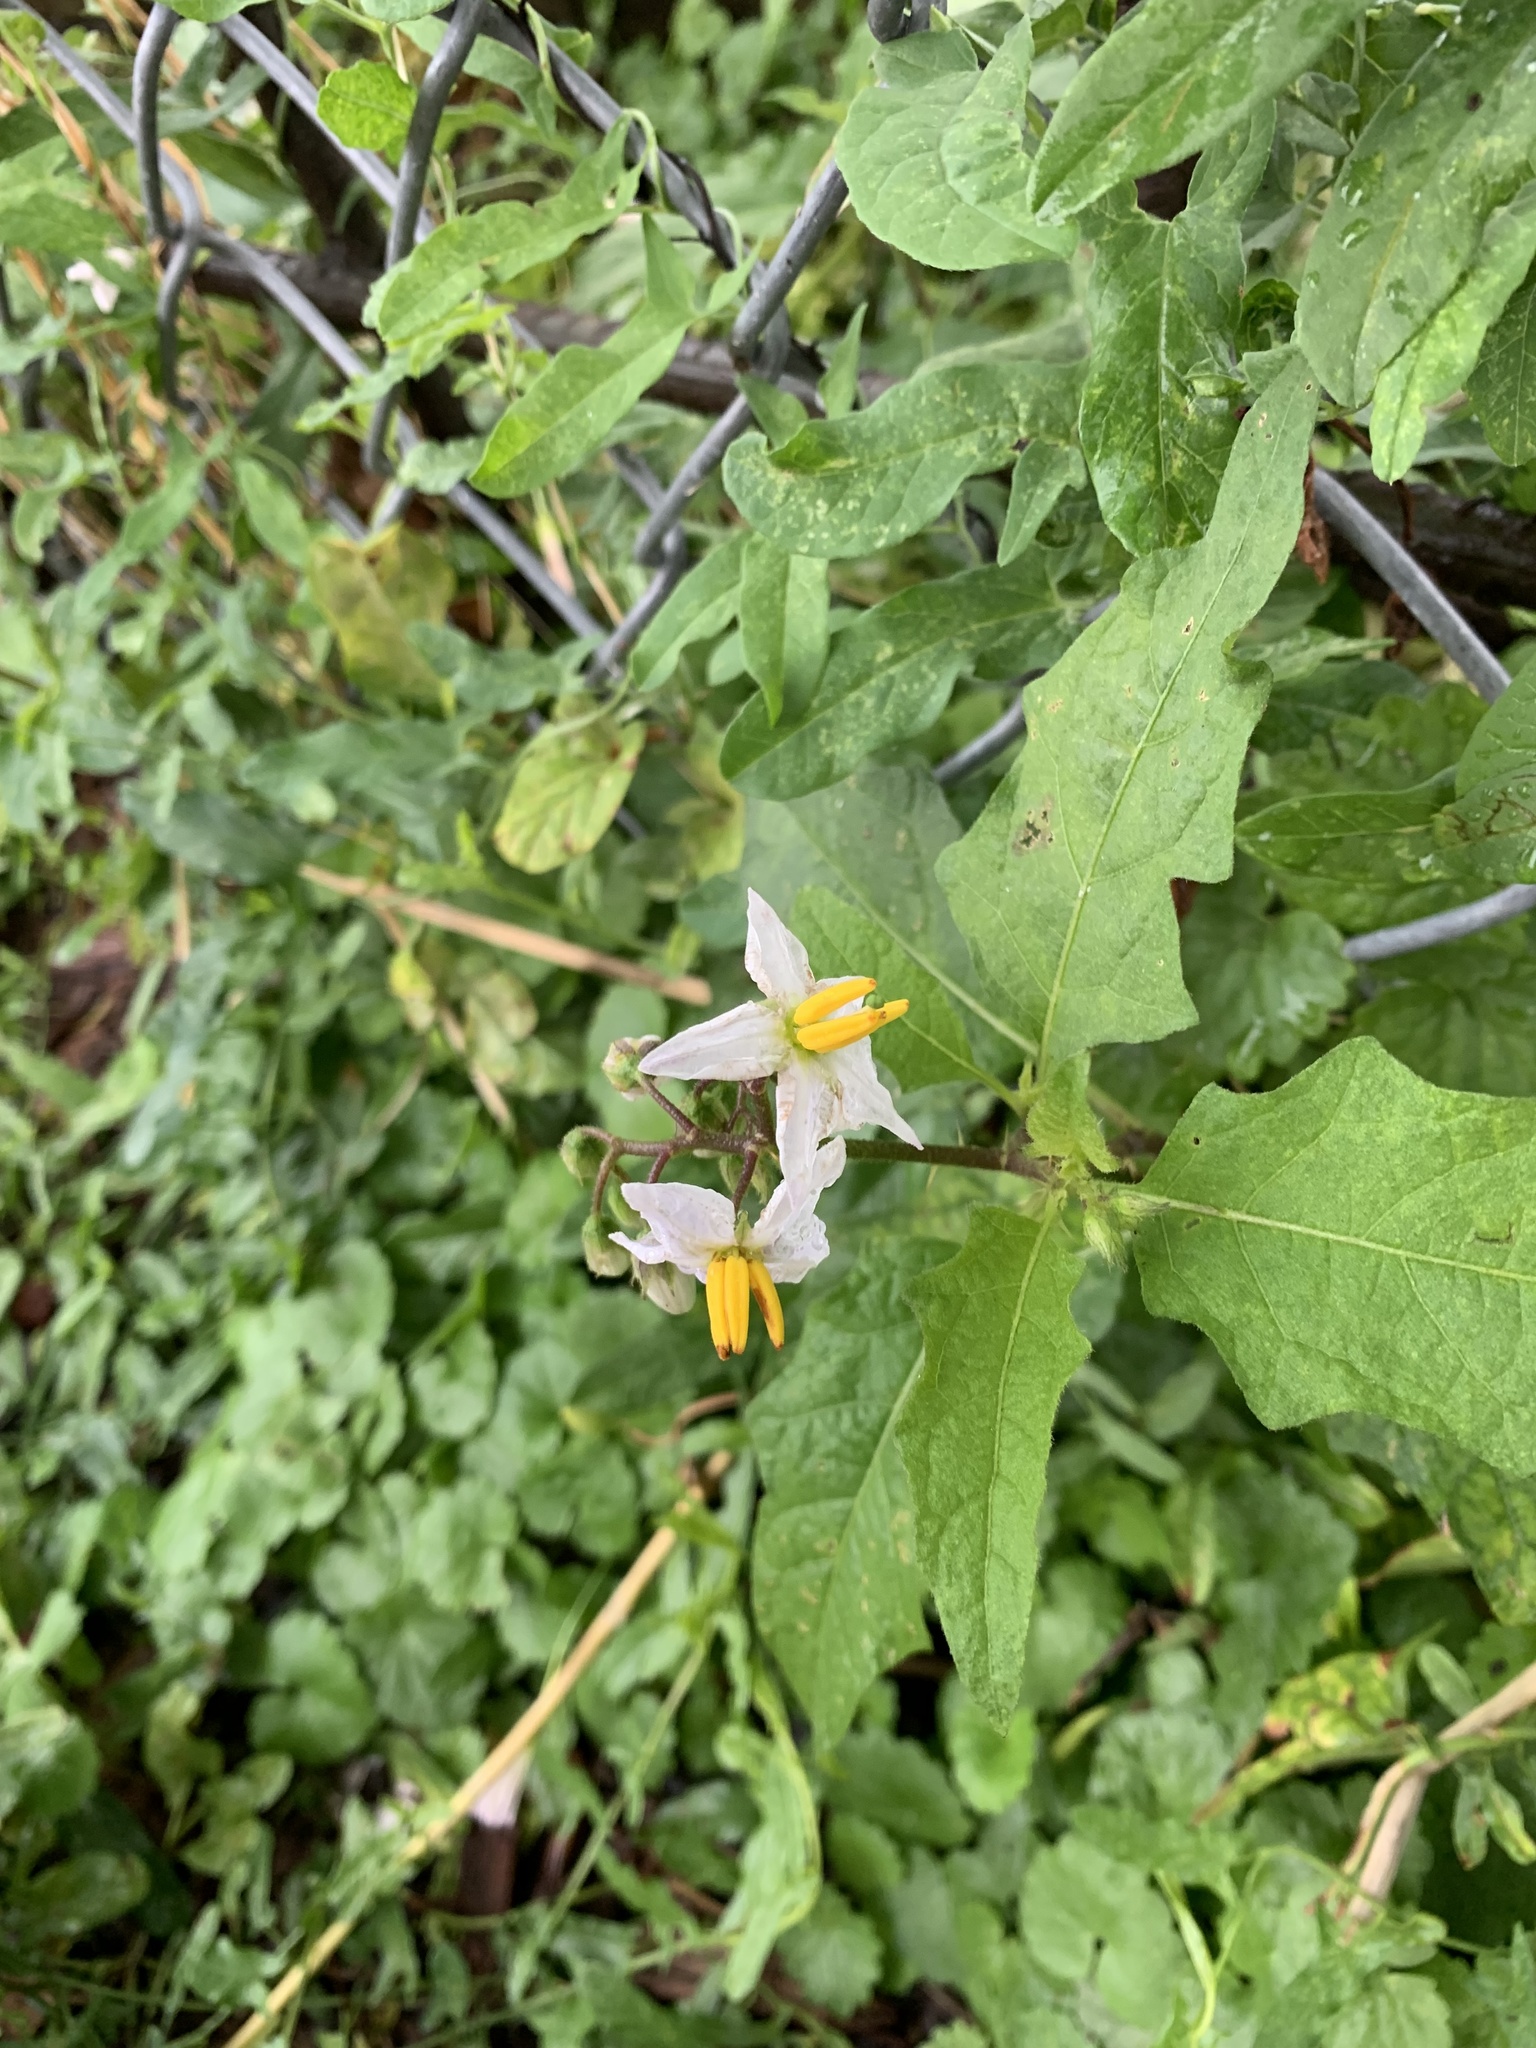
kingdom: Plantae
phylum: Tracheophyta
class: Magnoliopsida
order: Solanales
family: Solanaceae
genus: Solanum
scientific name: Solanum carolinense
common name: Horse-nettle
